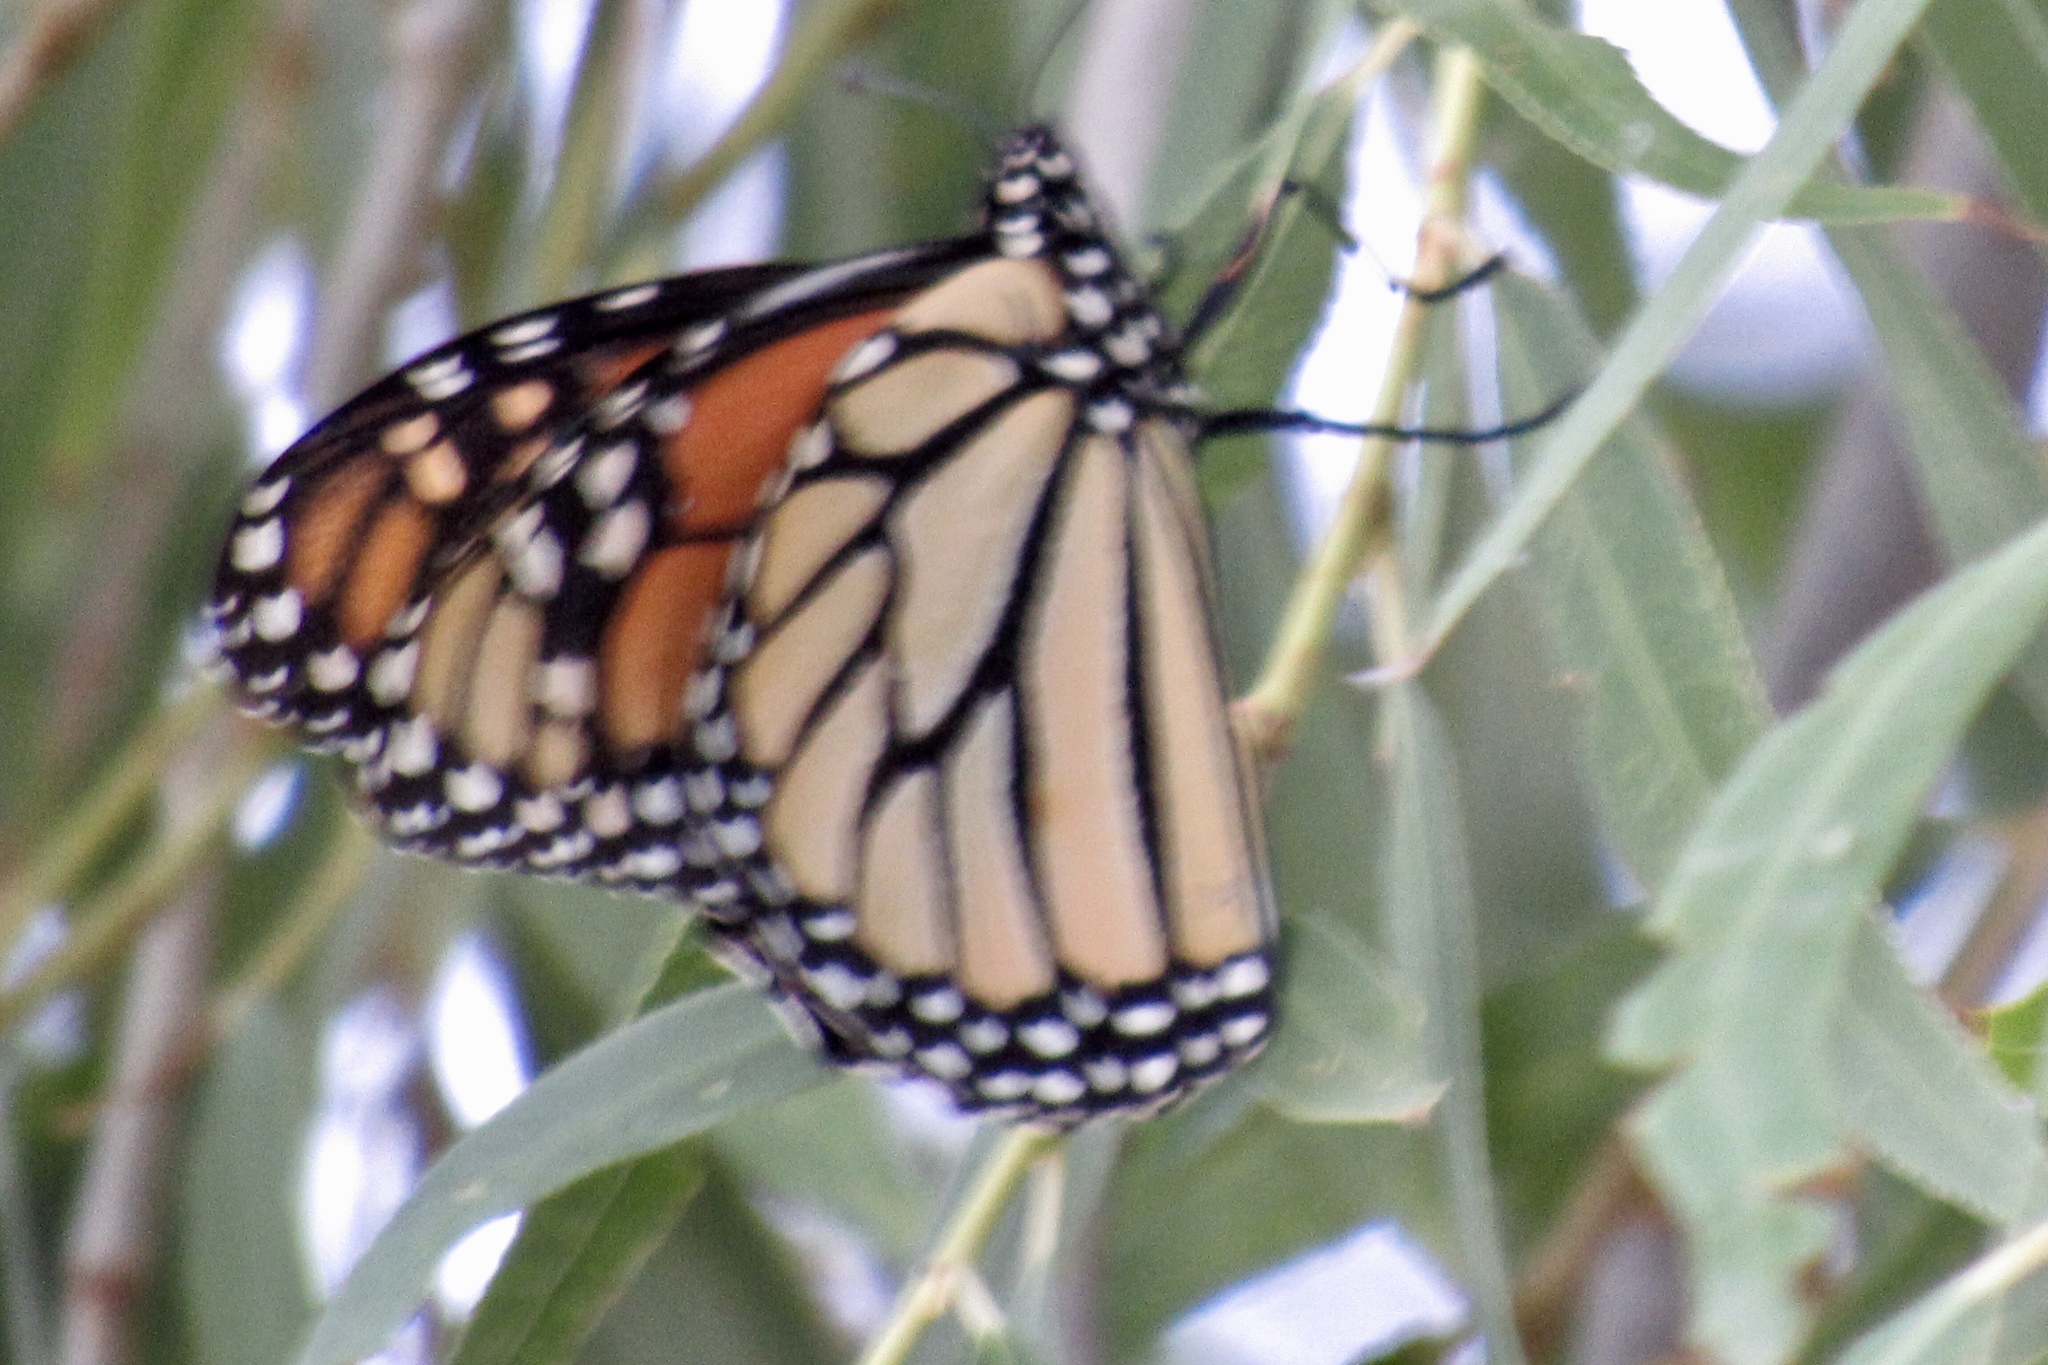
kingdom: Animalia
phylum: Arthropoda
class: Insecta
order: Lepidoptera
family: Nymphalidae
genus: Danaus
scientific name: Danaus plexippus
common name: Monarch
